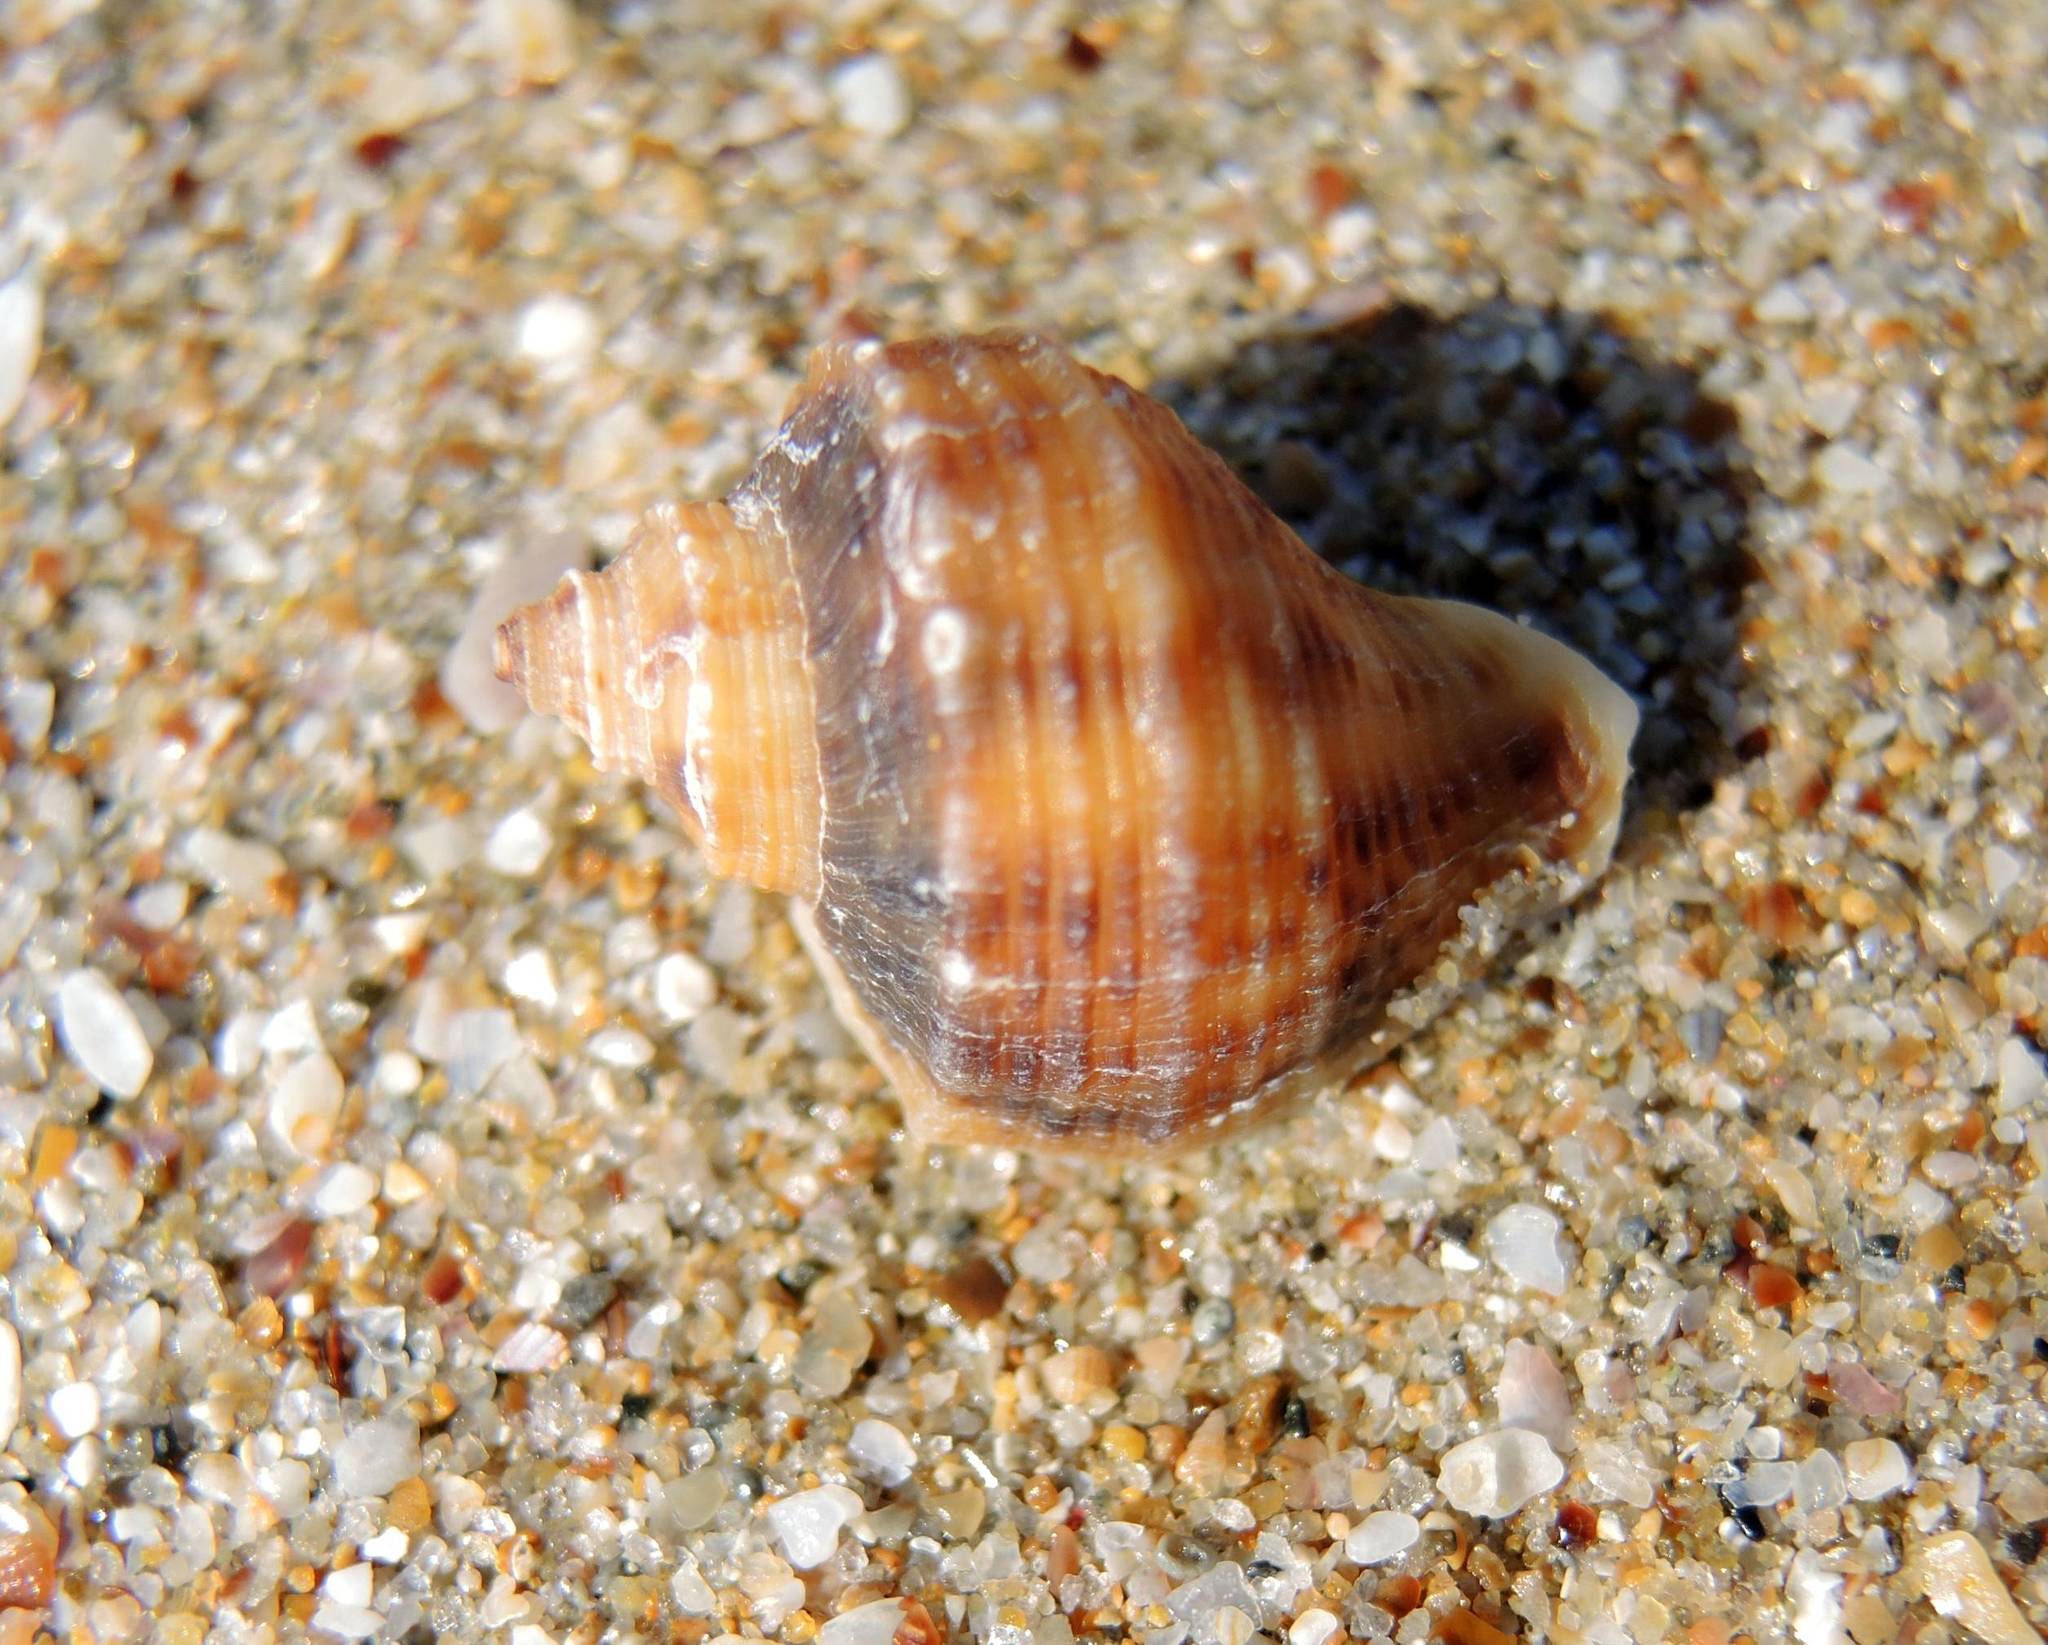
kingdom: Animalia
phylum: Mollusca
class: Gastropoda
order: Neogastropoda
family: Muricidae
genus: Rapana
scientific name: Rapana venosa
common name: Veined rapa whelk
